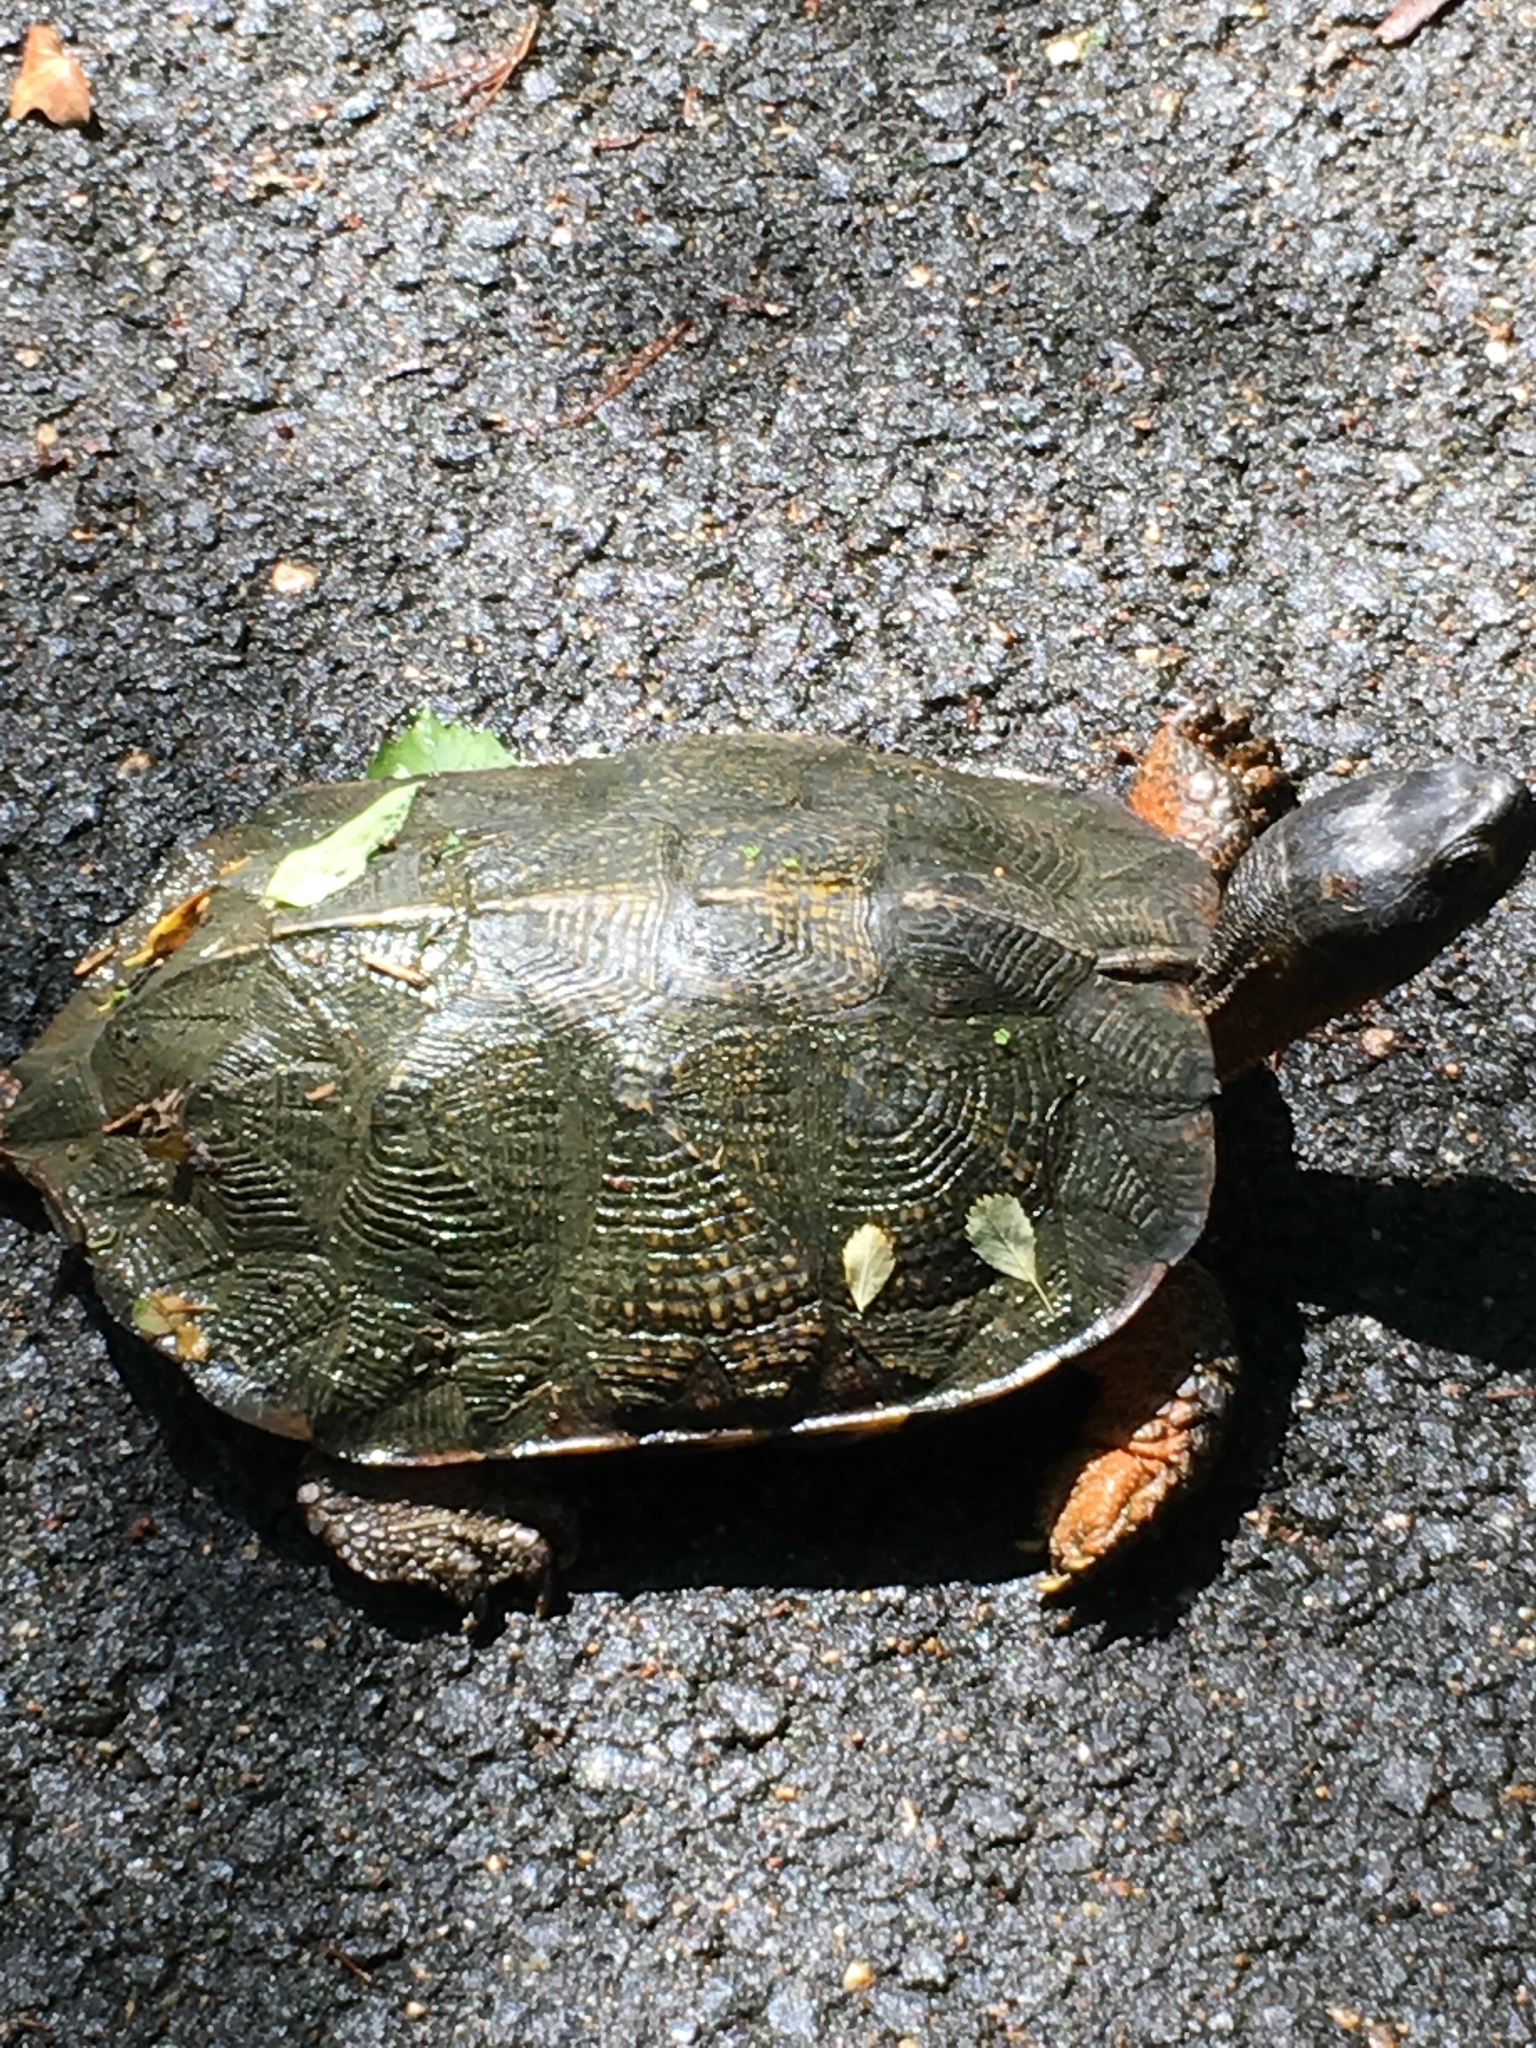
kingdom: Animalia
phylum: Chordata
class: Testudines
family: Emydidae
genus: Glyptemys
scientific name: Glyptemys insculpta
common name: Wood turtle
